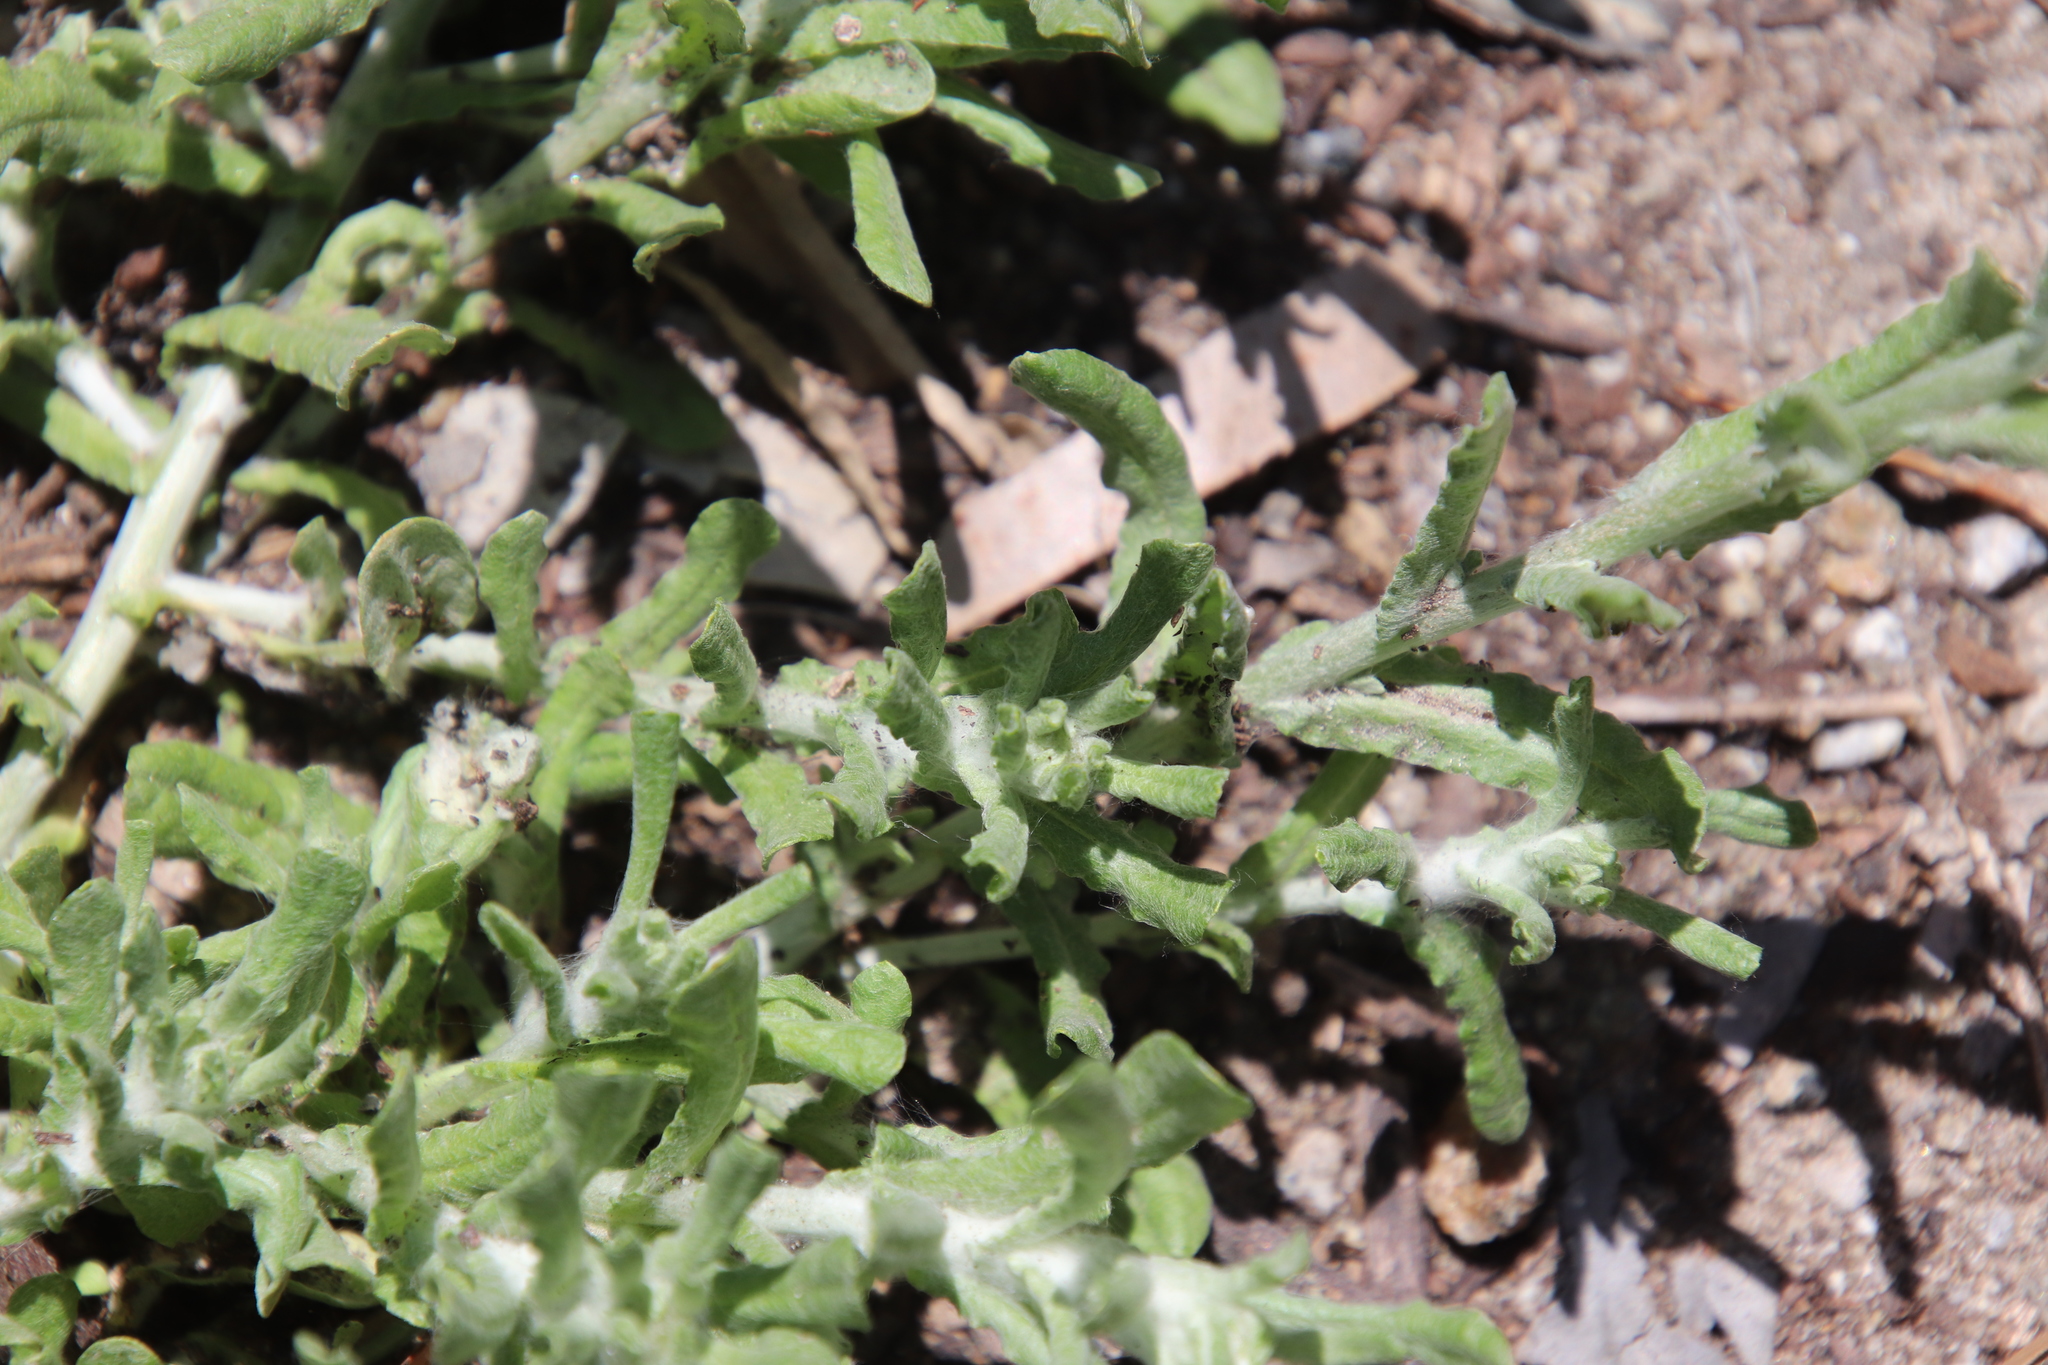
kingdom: Plantae
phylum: Tracheophyta
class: Magnoliopsida
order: Asterales
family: Asteraceae
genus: Helichrysum
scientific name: Helichrysum luteoalbum
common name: Daisy
